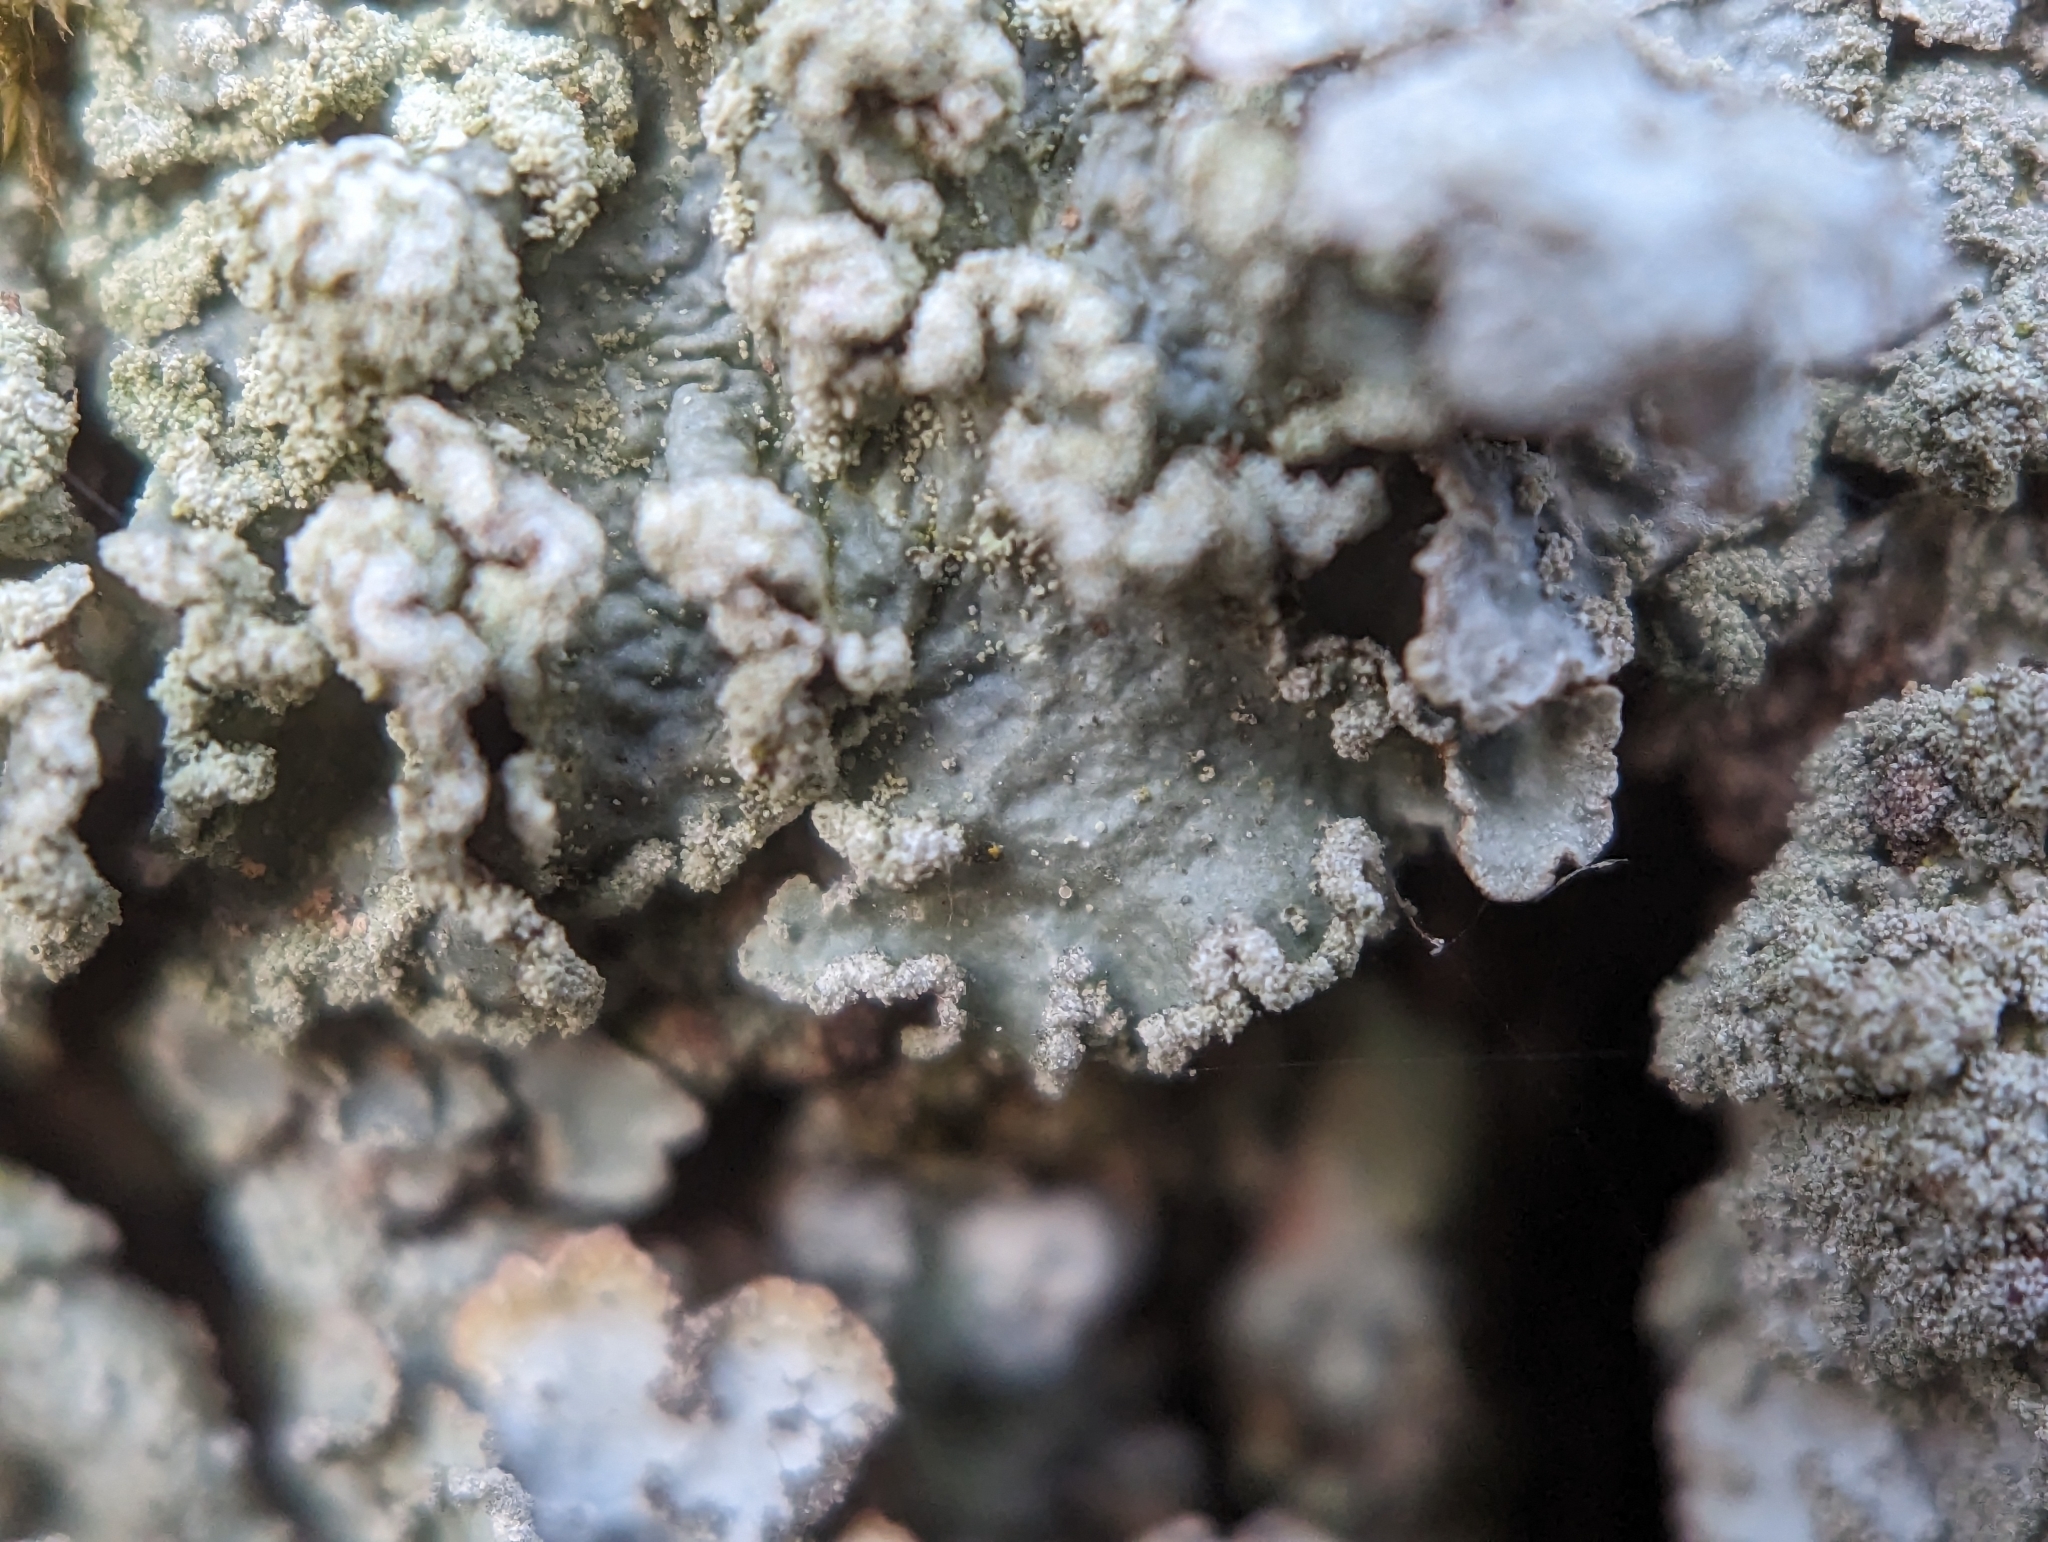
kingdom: Fungi
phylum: Ascomycota
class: Lecanoromycetes
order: Lecanorales
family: Parmeliaceae
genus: Punctelia
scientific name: Punctelia jeckeri
